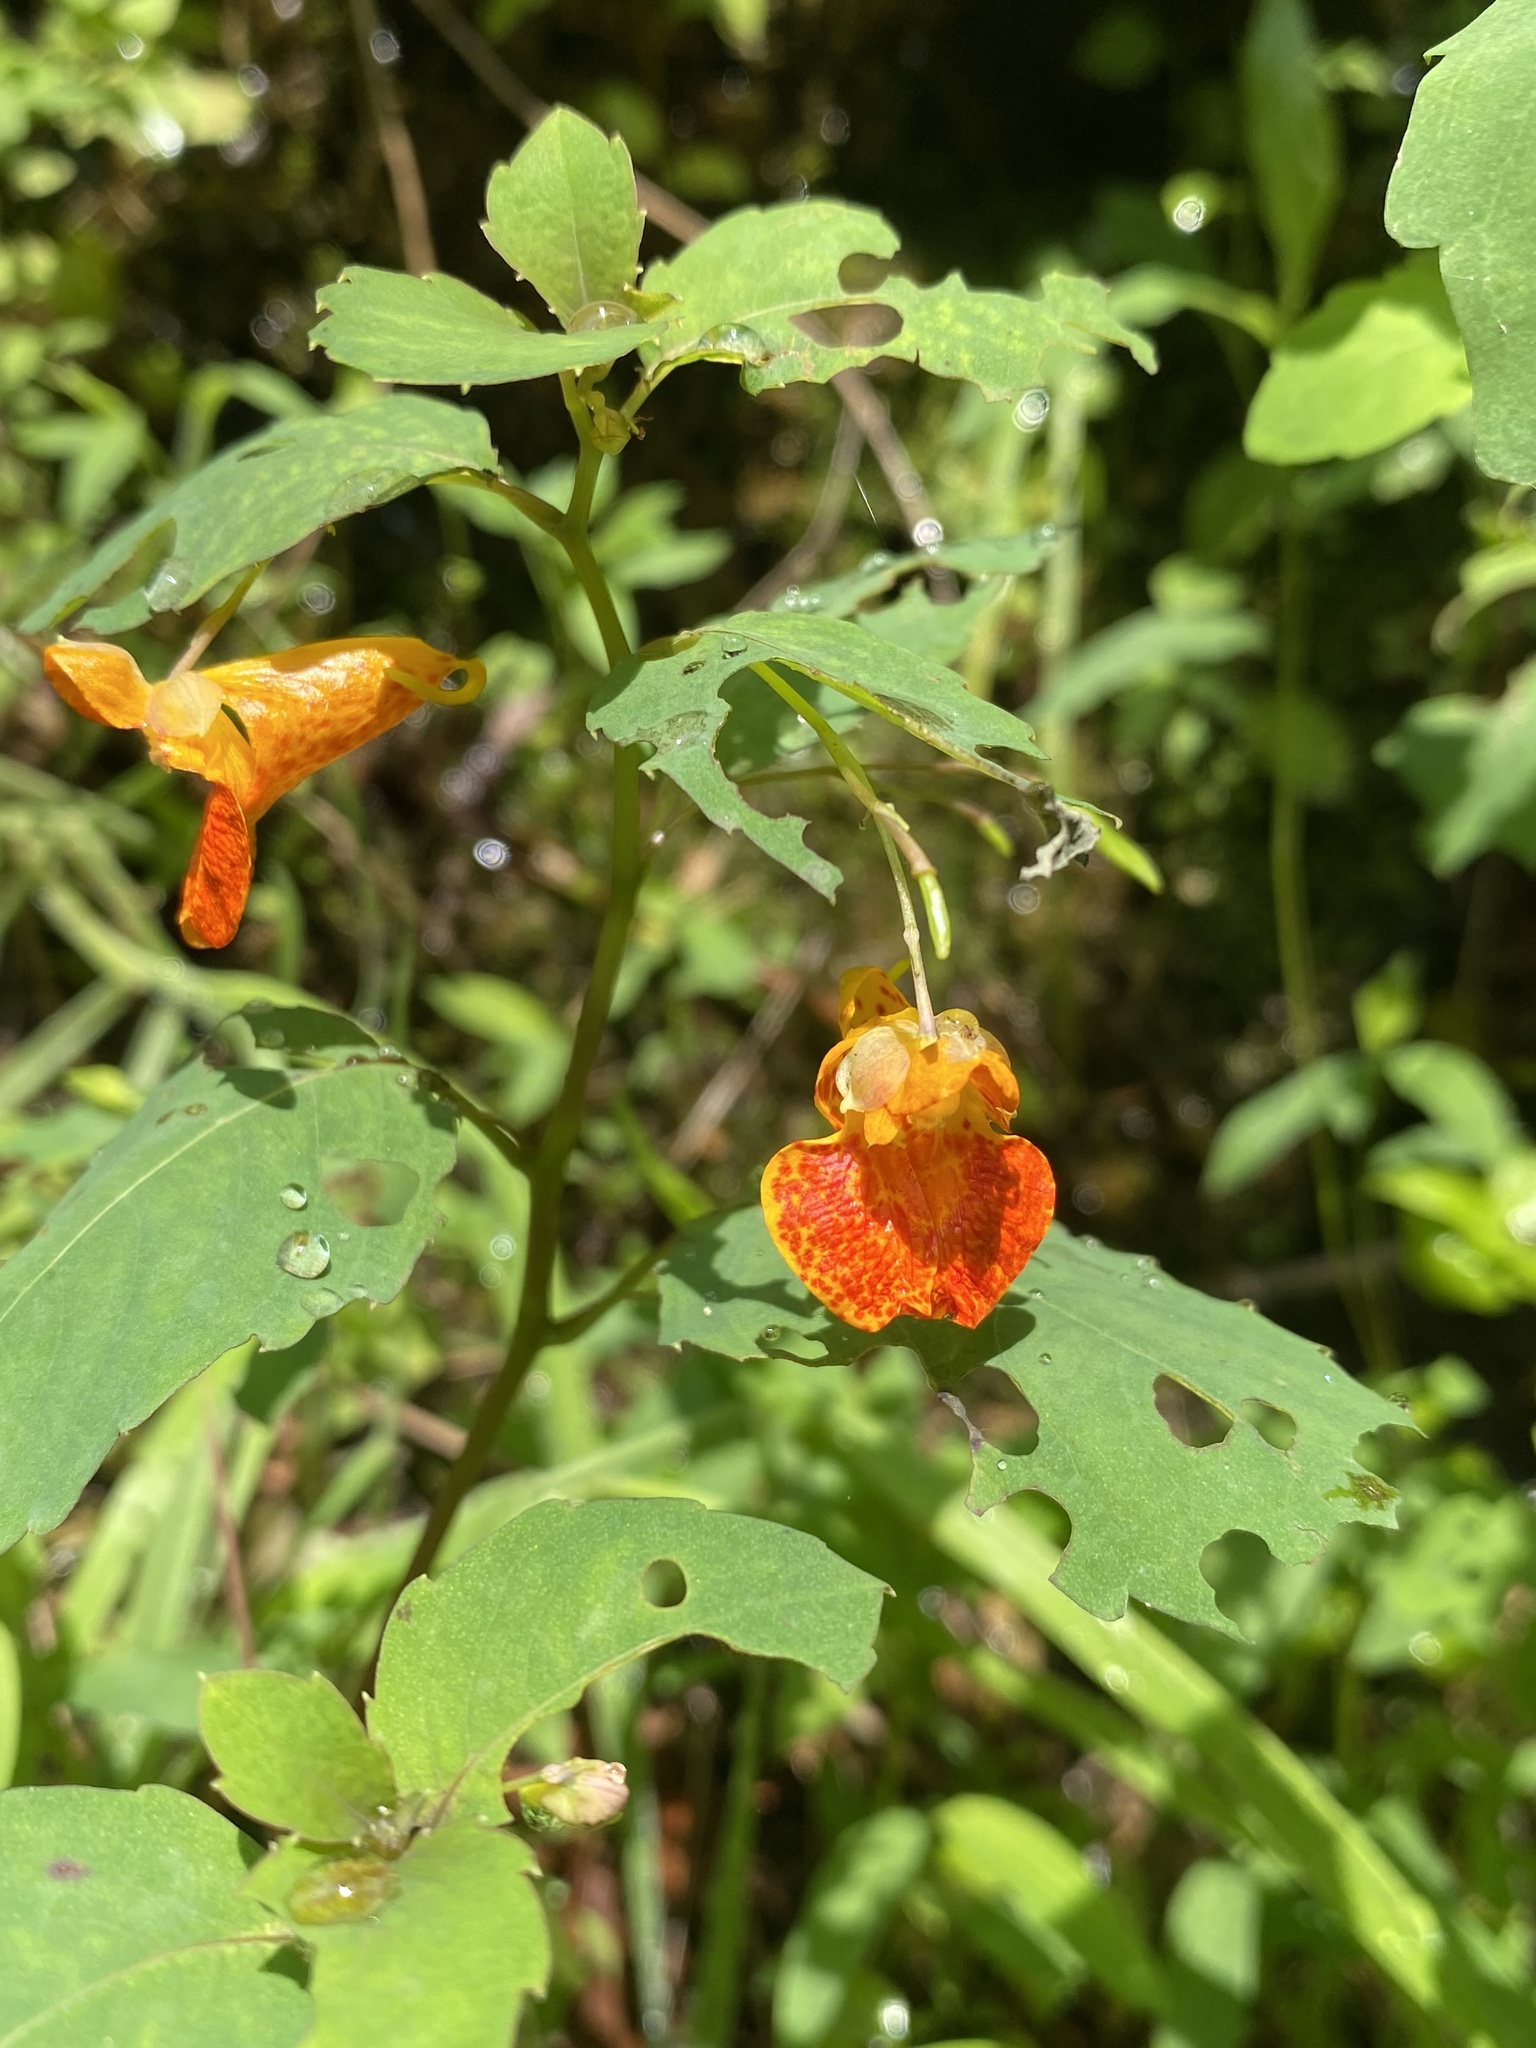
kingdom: Plantae
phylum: Tracheophyta
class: Magnoliopsida
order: Ericales
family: Balsaminaceae
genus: Impatiens
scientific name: Impatiens capensis
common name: Orange balsam
